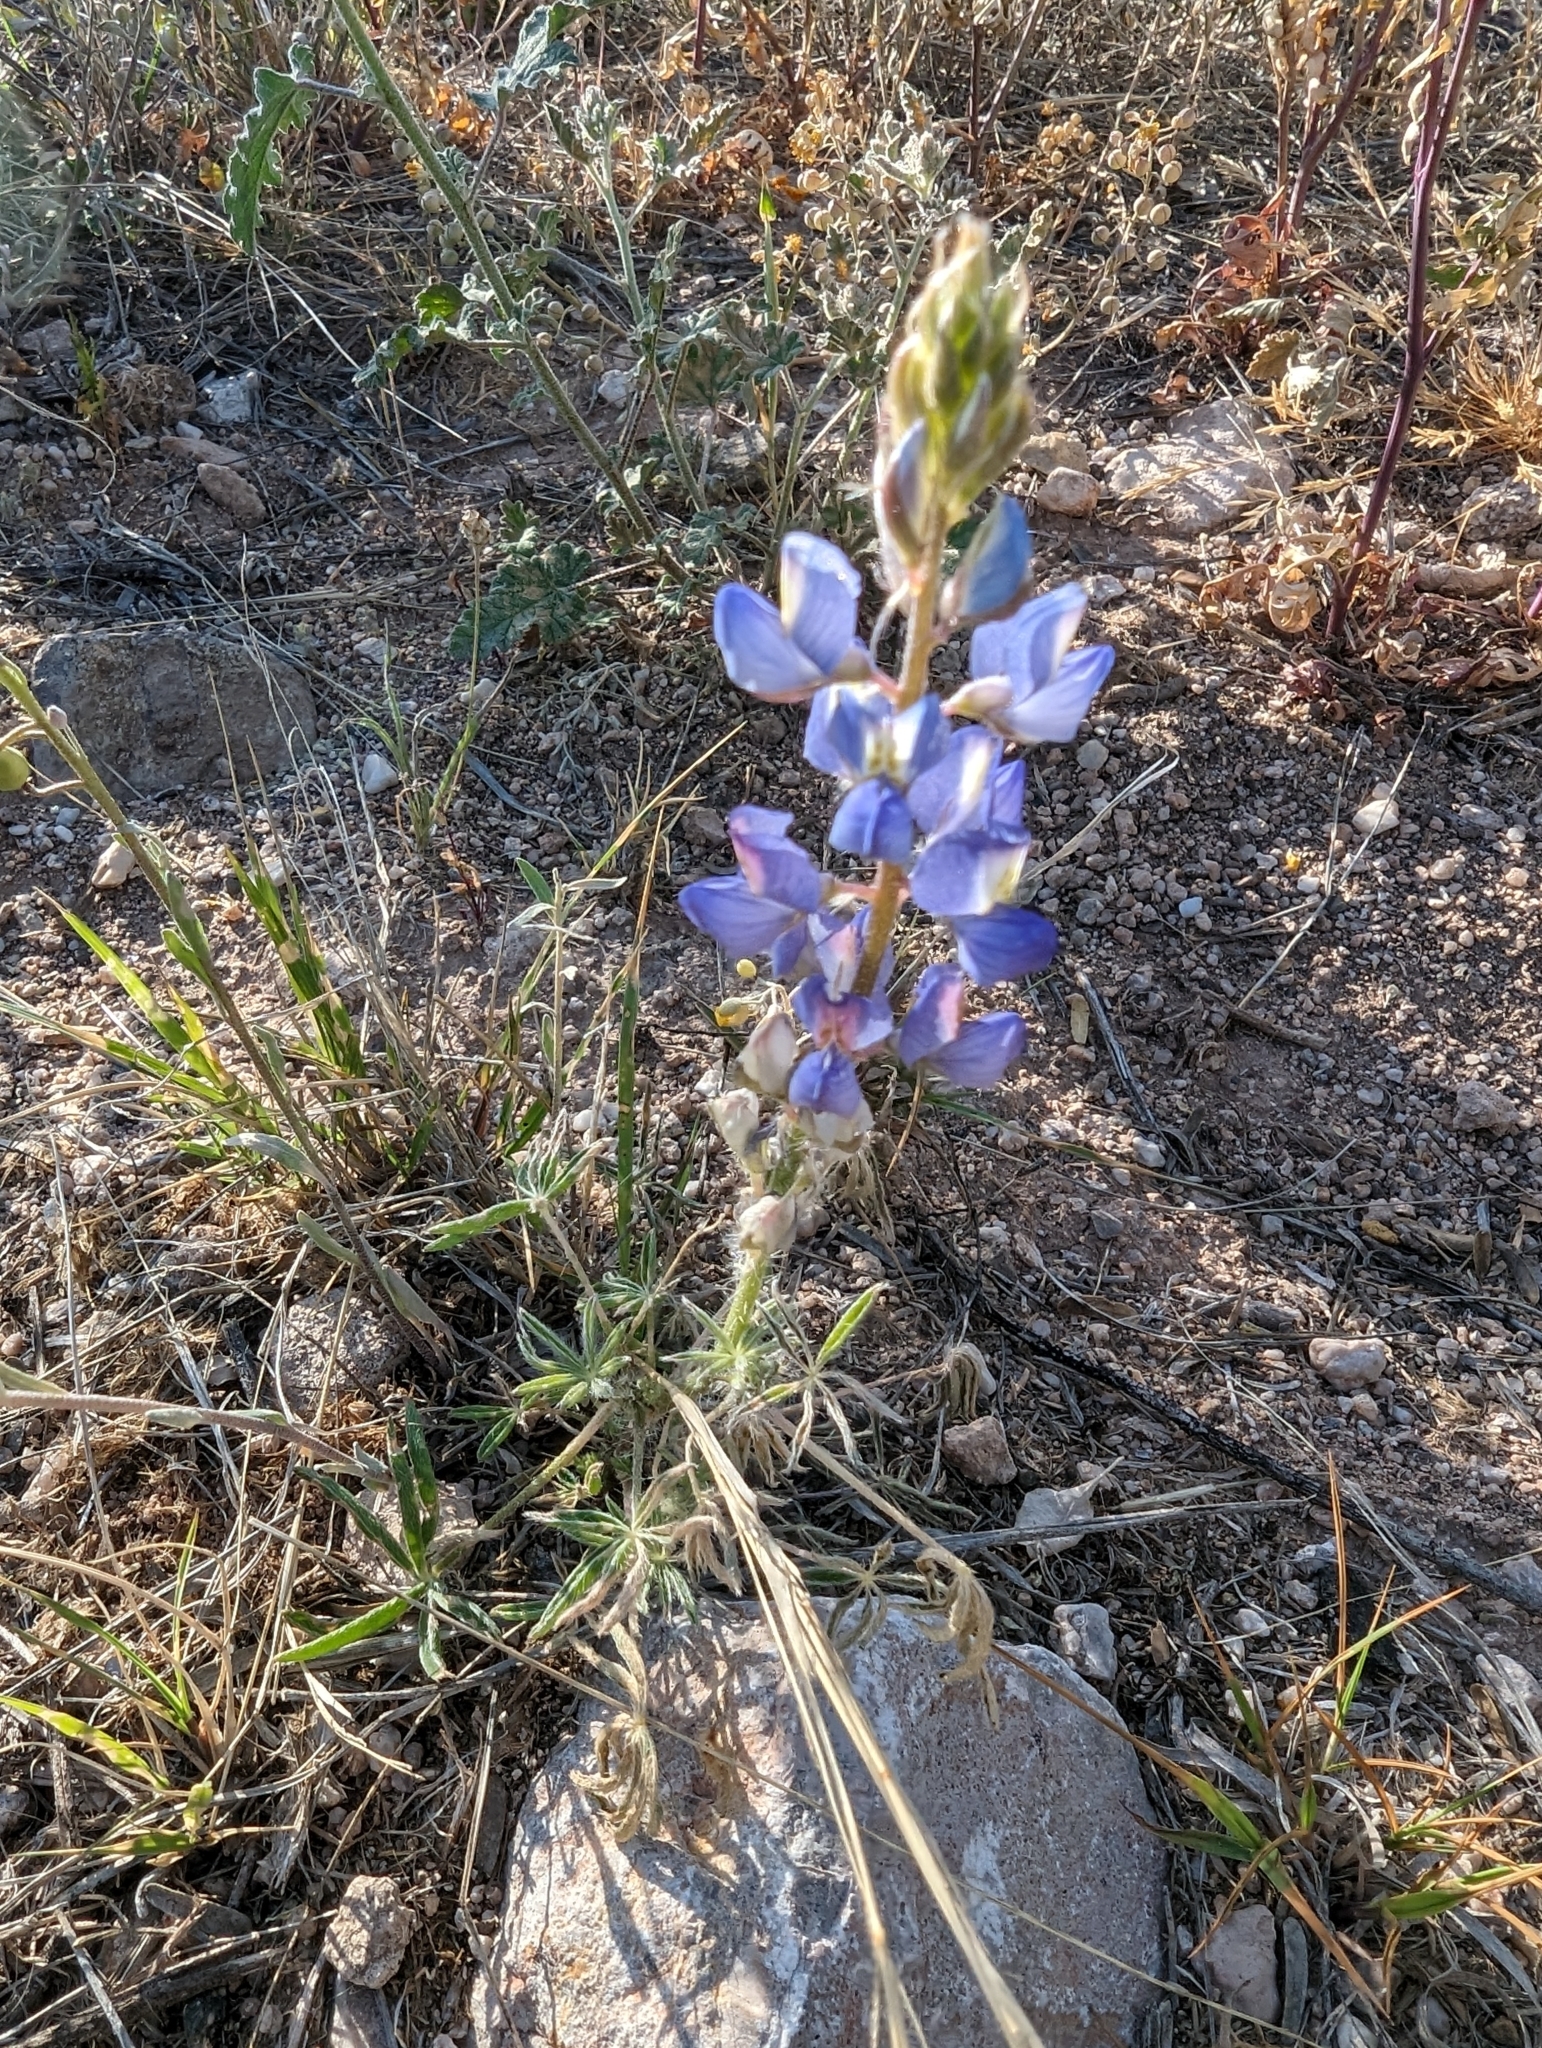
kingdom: Plantae
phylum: Tracheophyta
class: Magnoliopsida
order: Fabales
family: Fabaceae
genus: Lupinus
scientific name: Lupinus sparsiflorus
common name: Coulter's lupine
